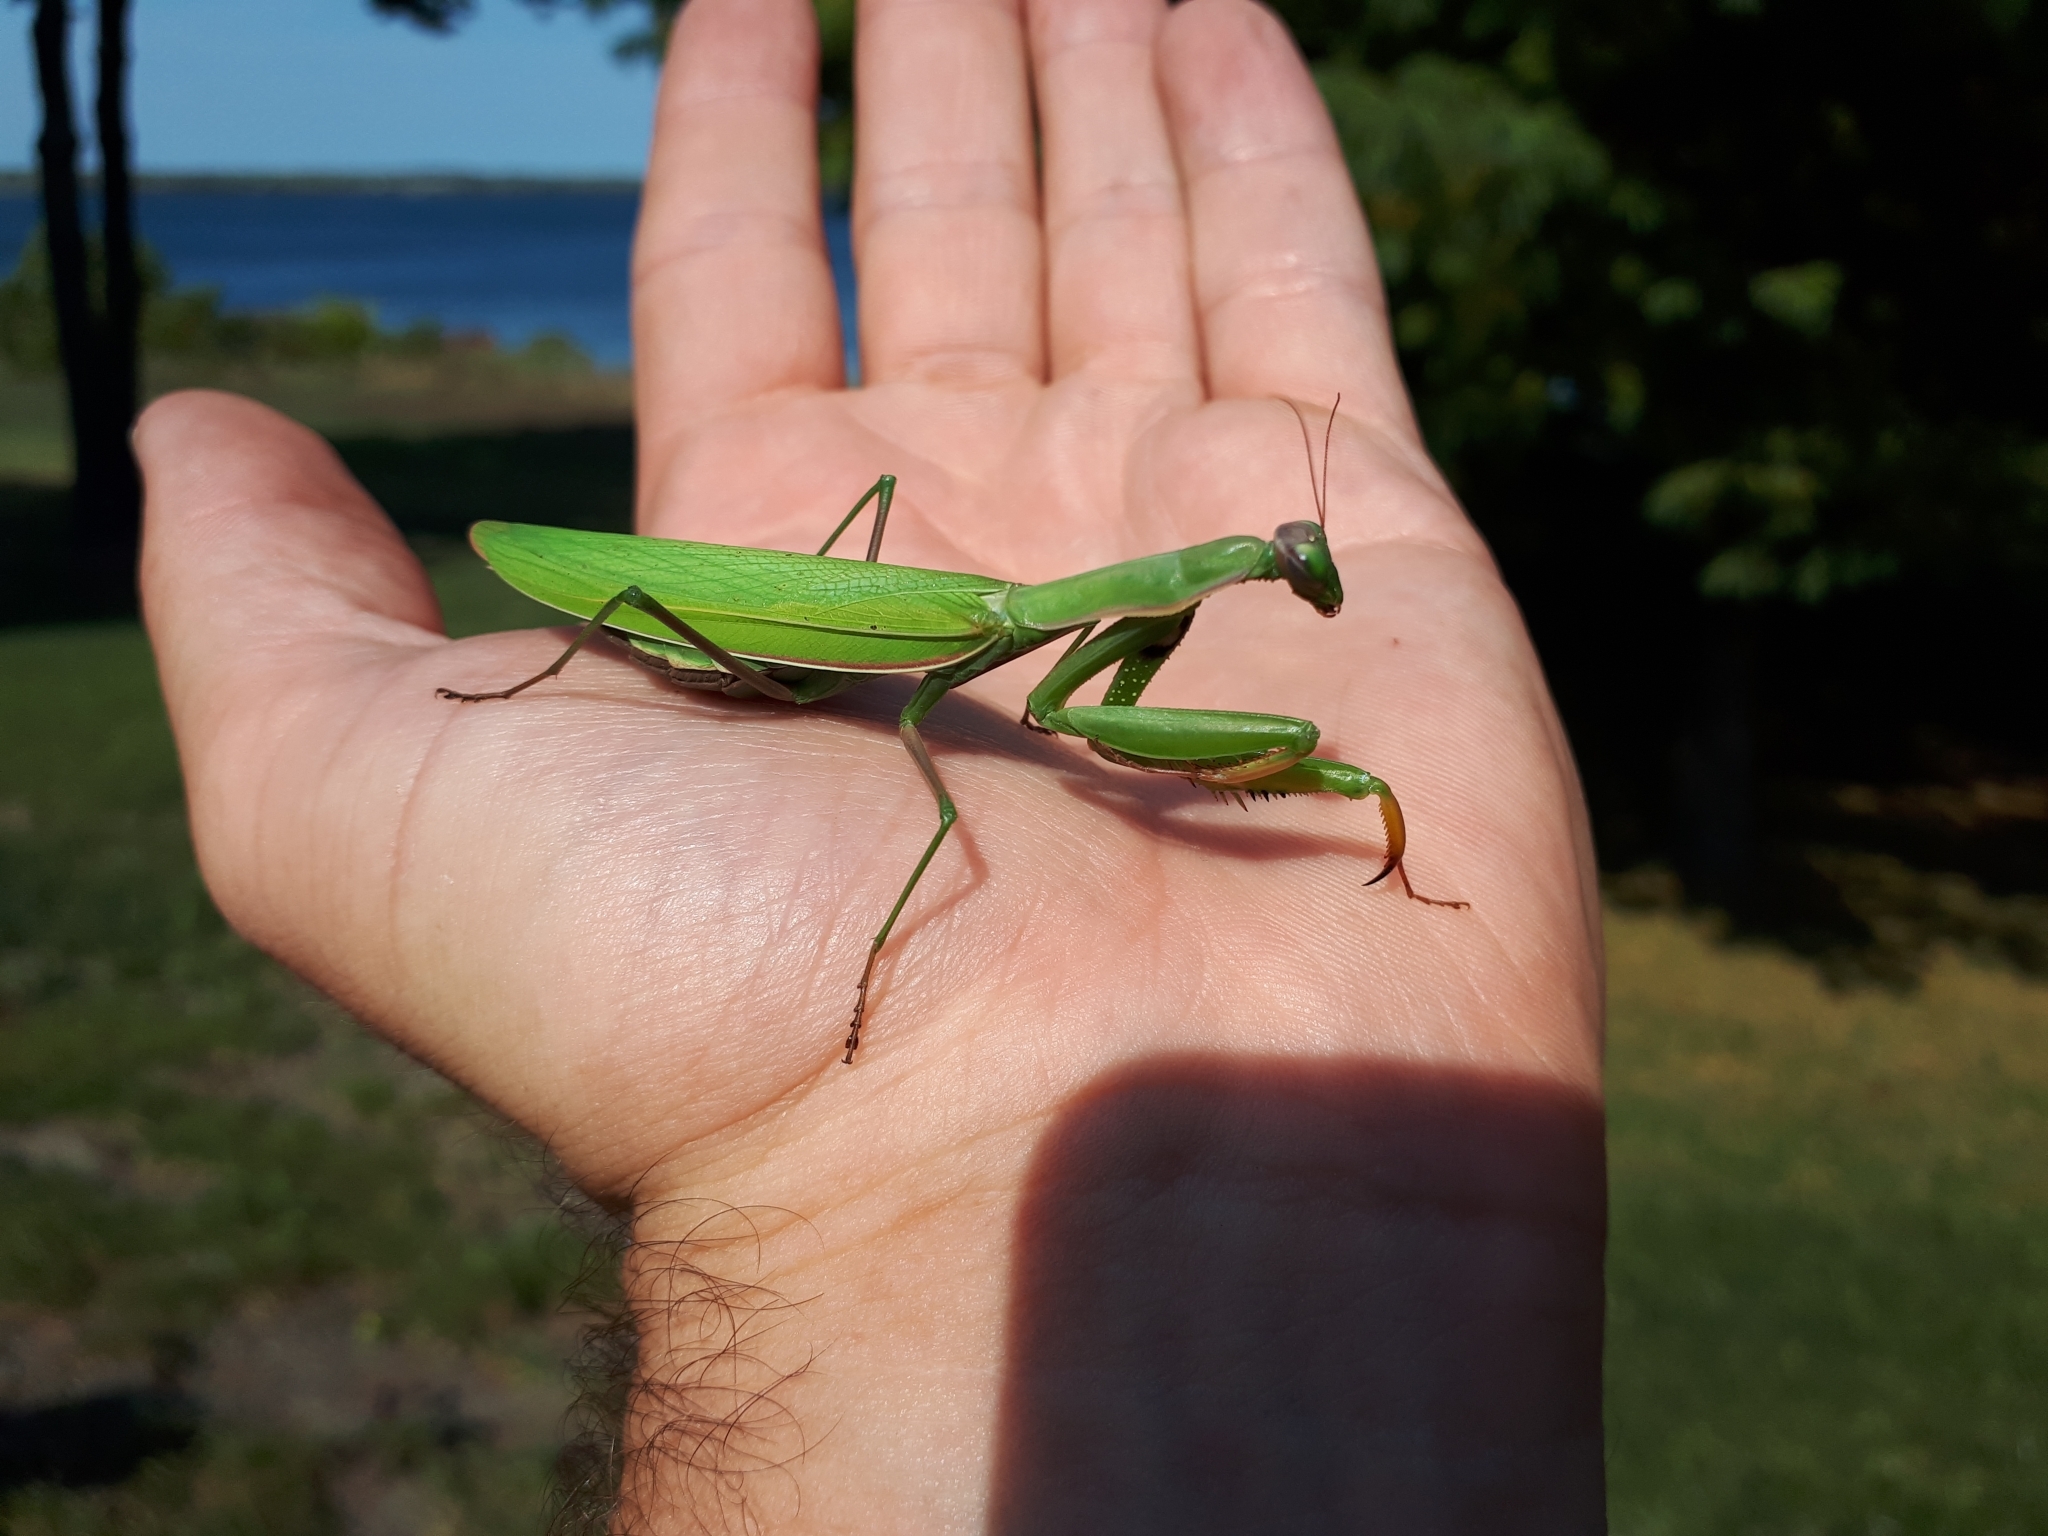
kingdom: Animalia
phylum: Arthropoda
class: Insecta
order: Mantodea
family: Mantidae
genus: Mantis
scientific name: Mantis religiosa
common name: Praying mantis
